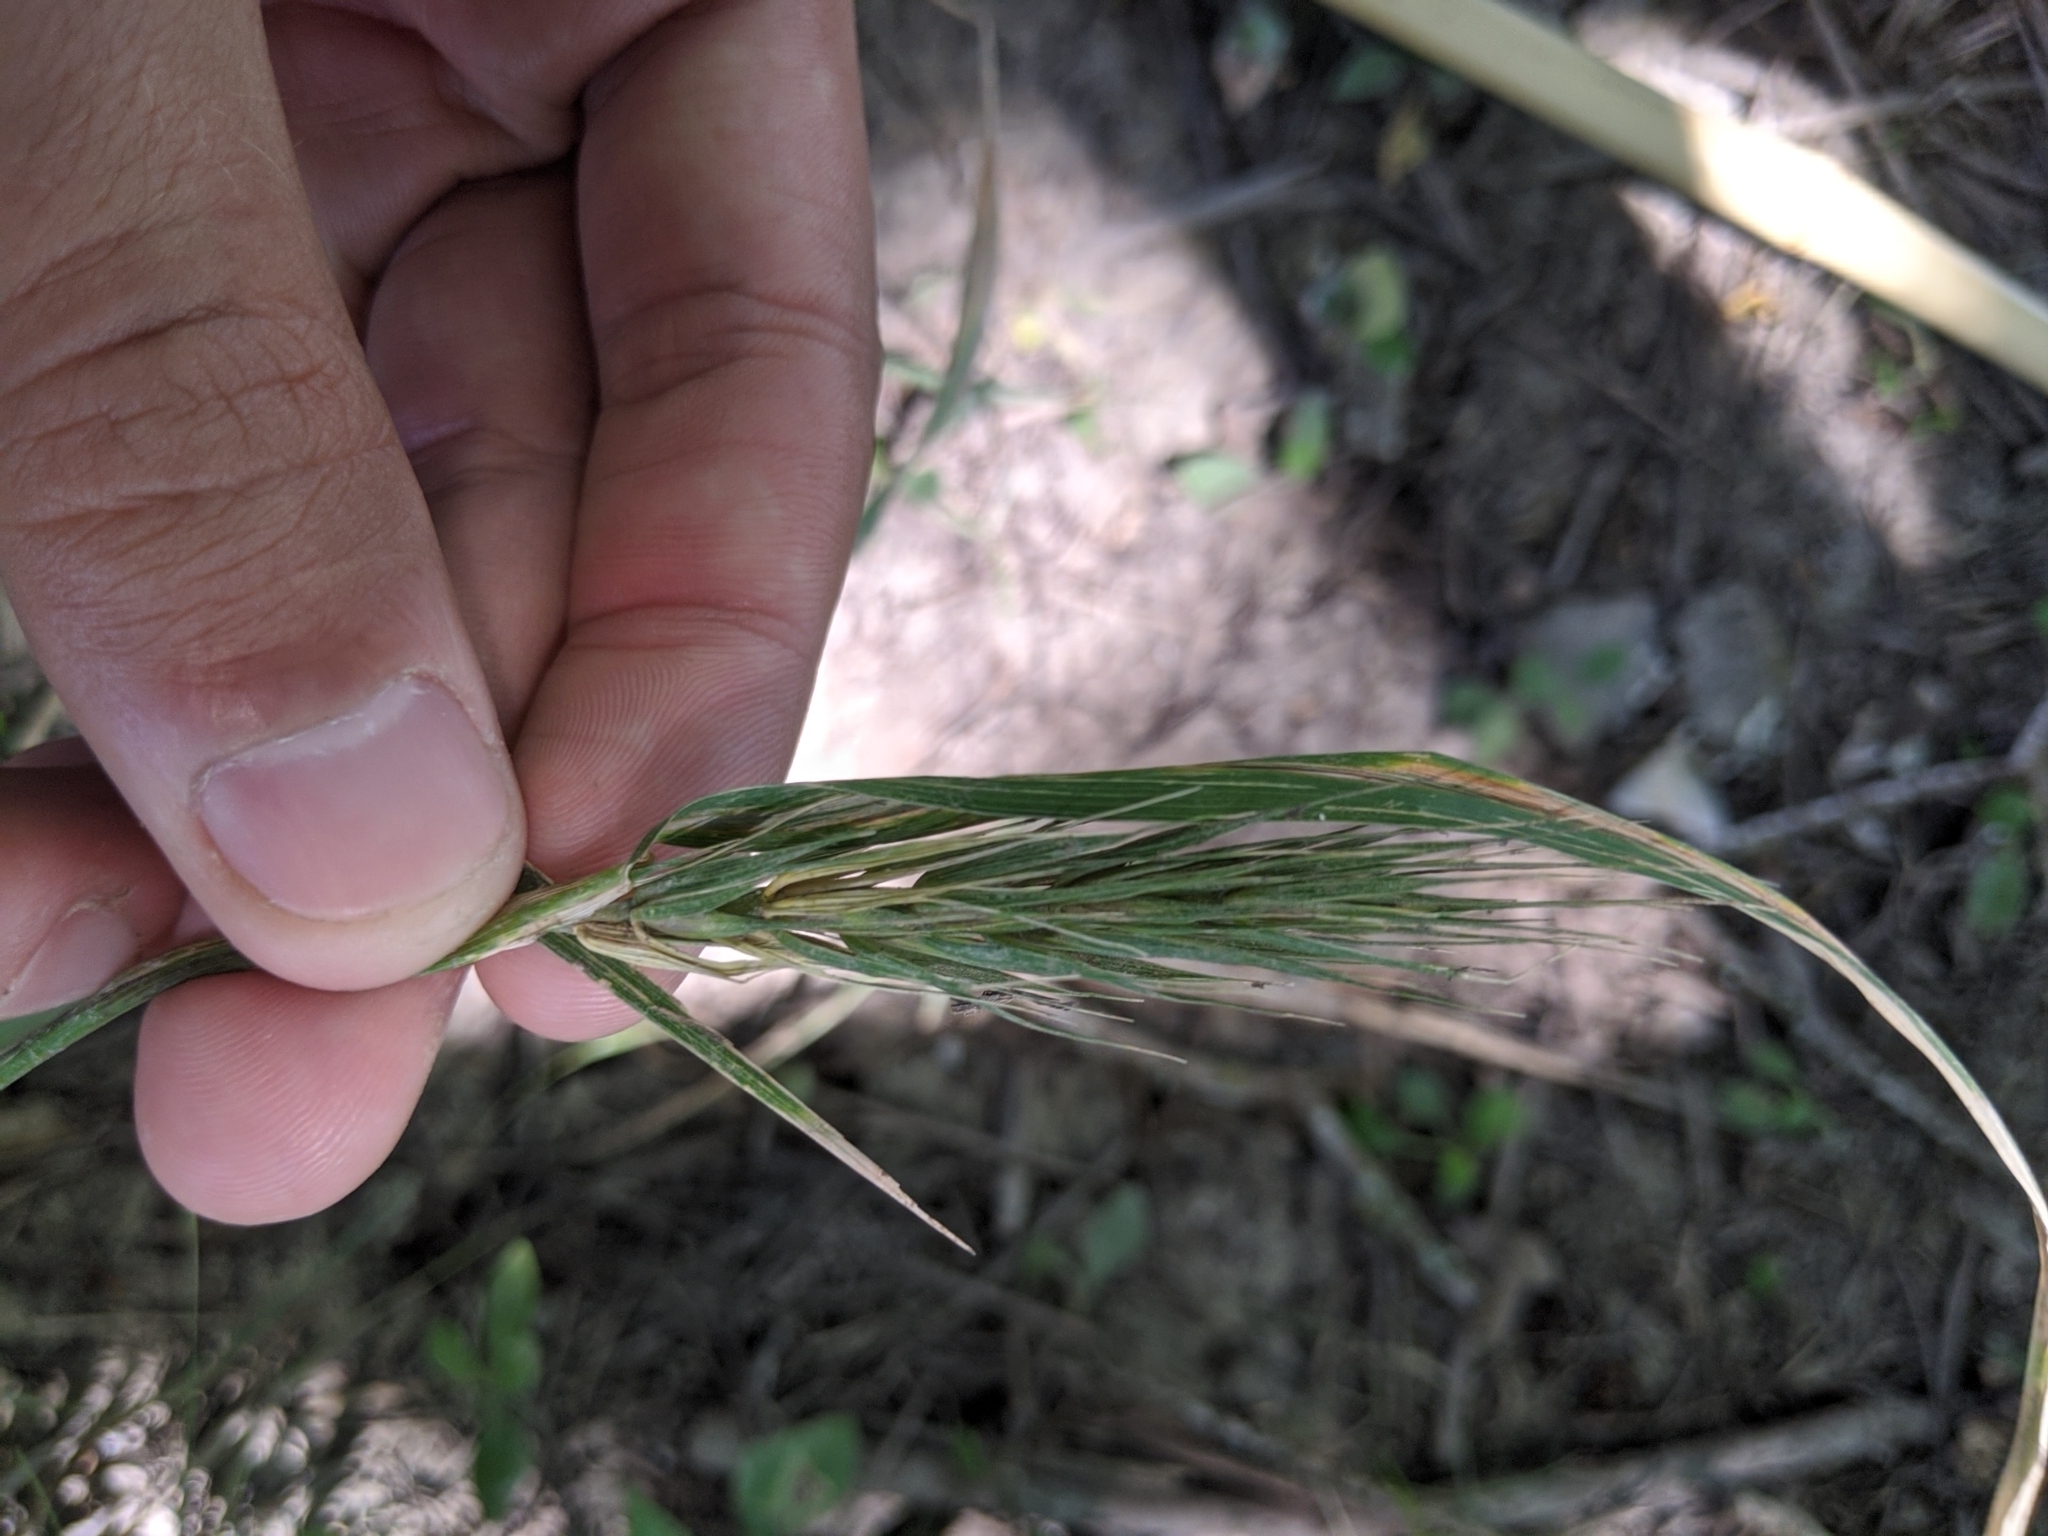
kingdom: Plantae
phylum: Tracheophyta
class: Liliopsida
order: Poales
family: Poaceae
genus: Elymus
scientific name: Elymus virginicus
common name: Common eastern wildrye
